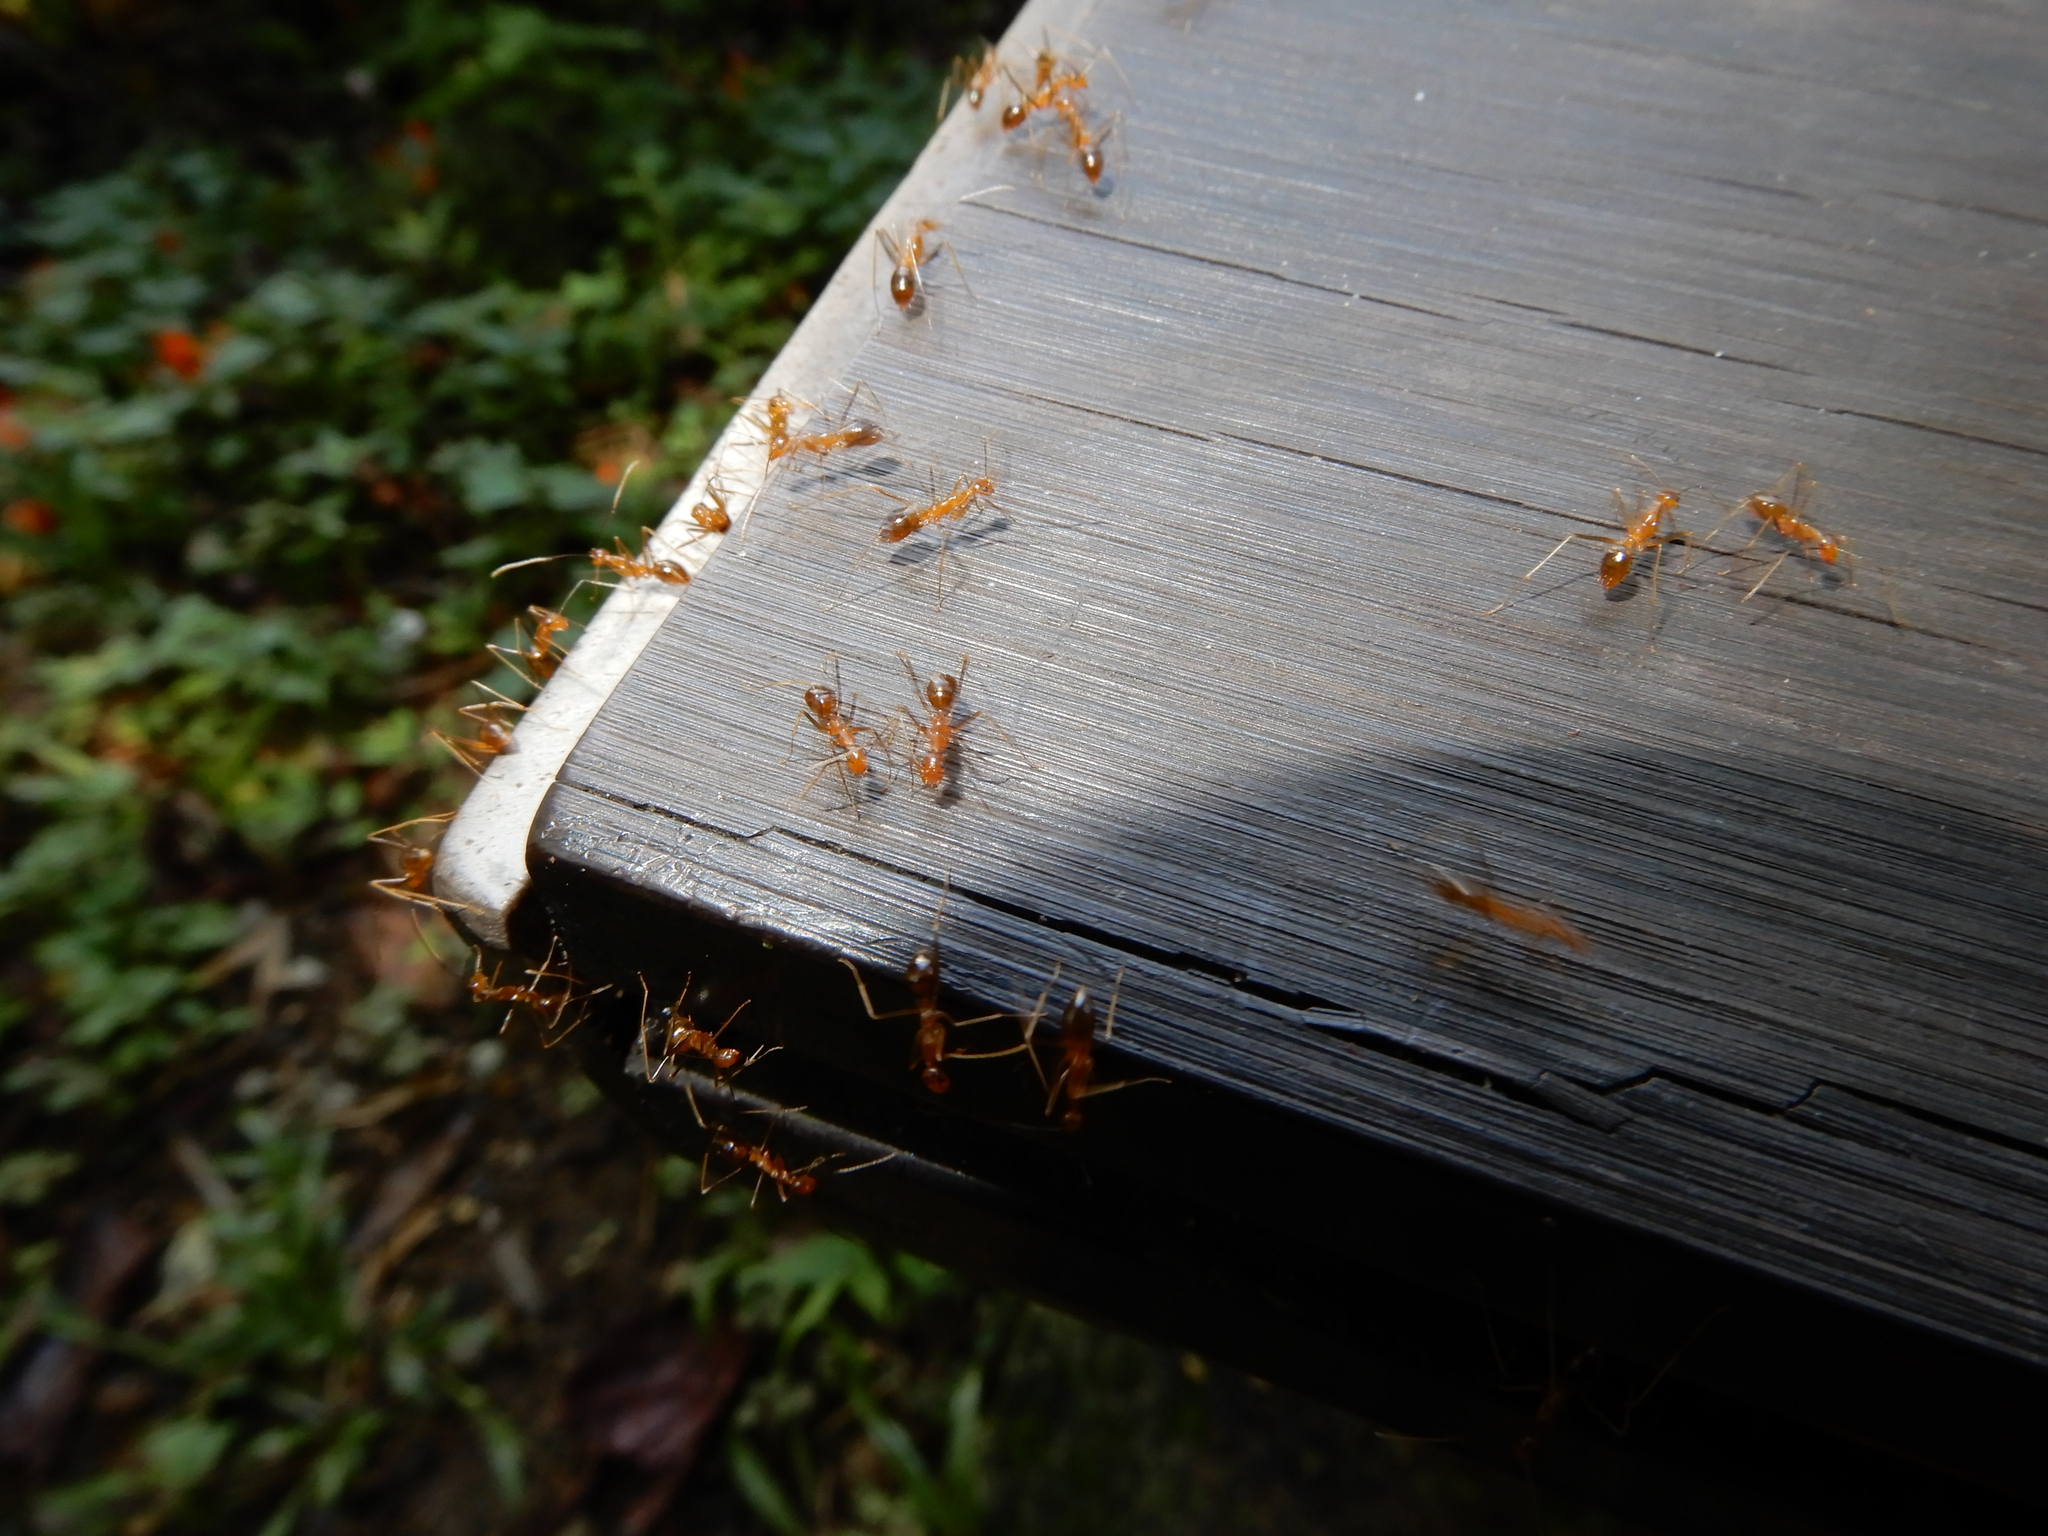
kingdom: Animalia
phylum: Arthropoda
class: Insecta
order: Hymenoptera
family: Formicidae
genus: Anoplolepis
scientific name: Anoplolepis gracilipes
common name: Ant
